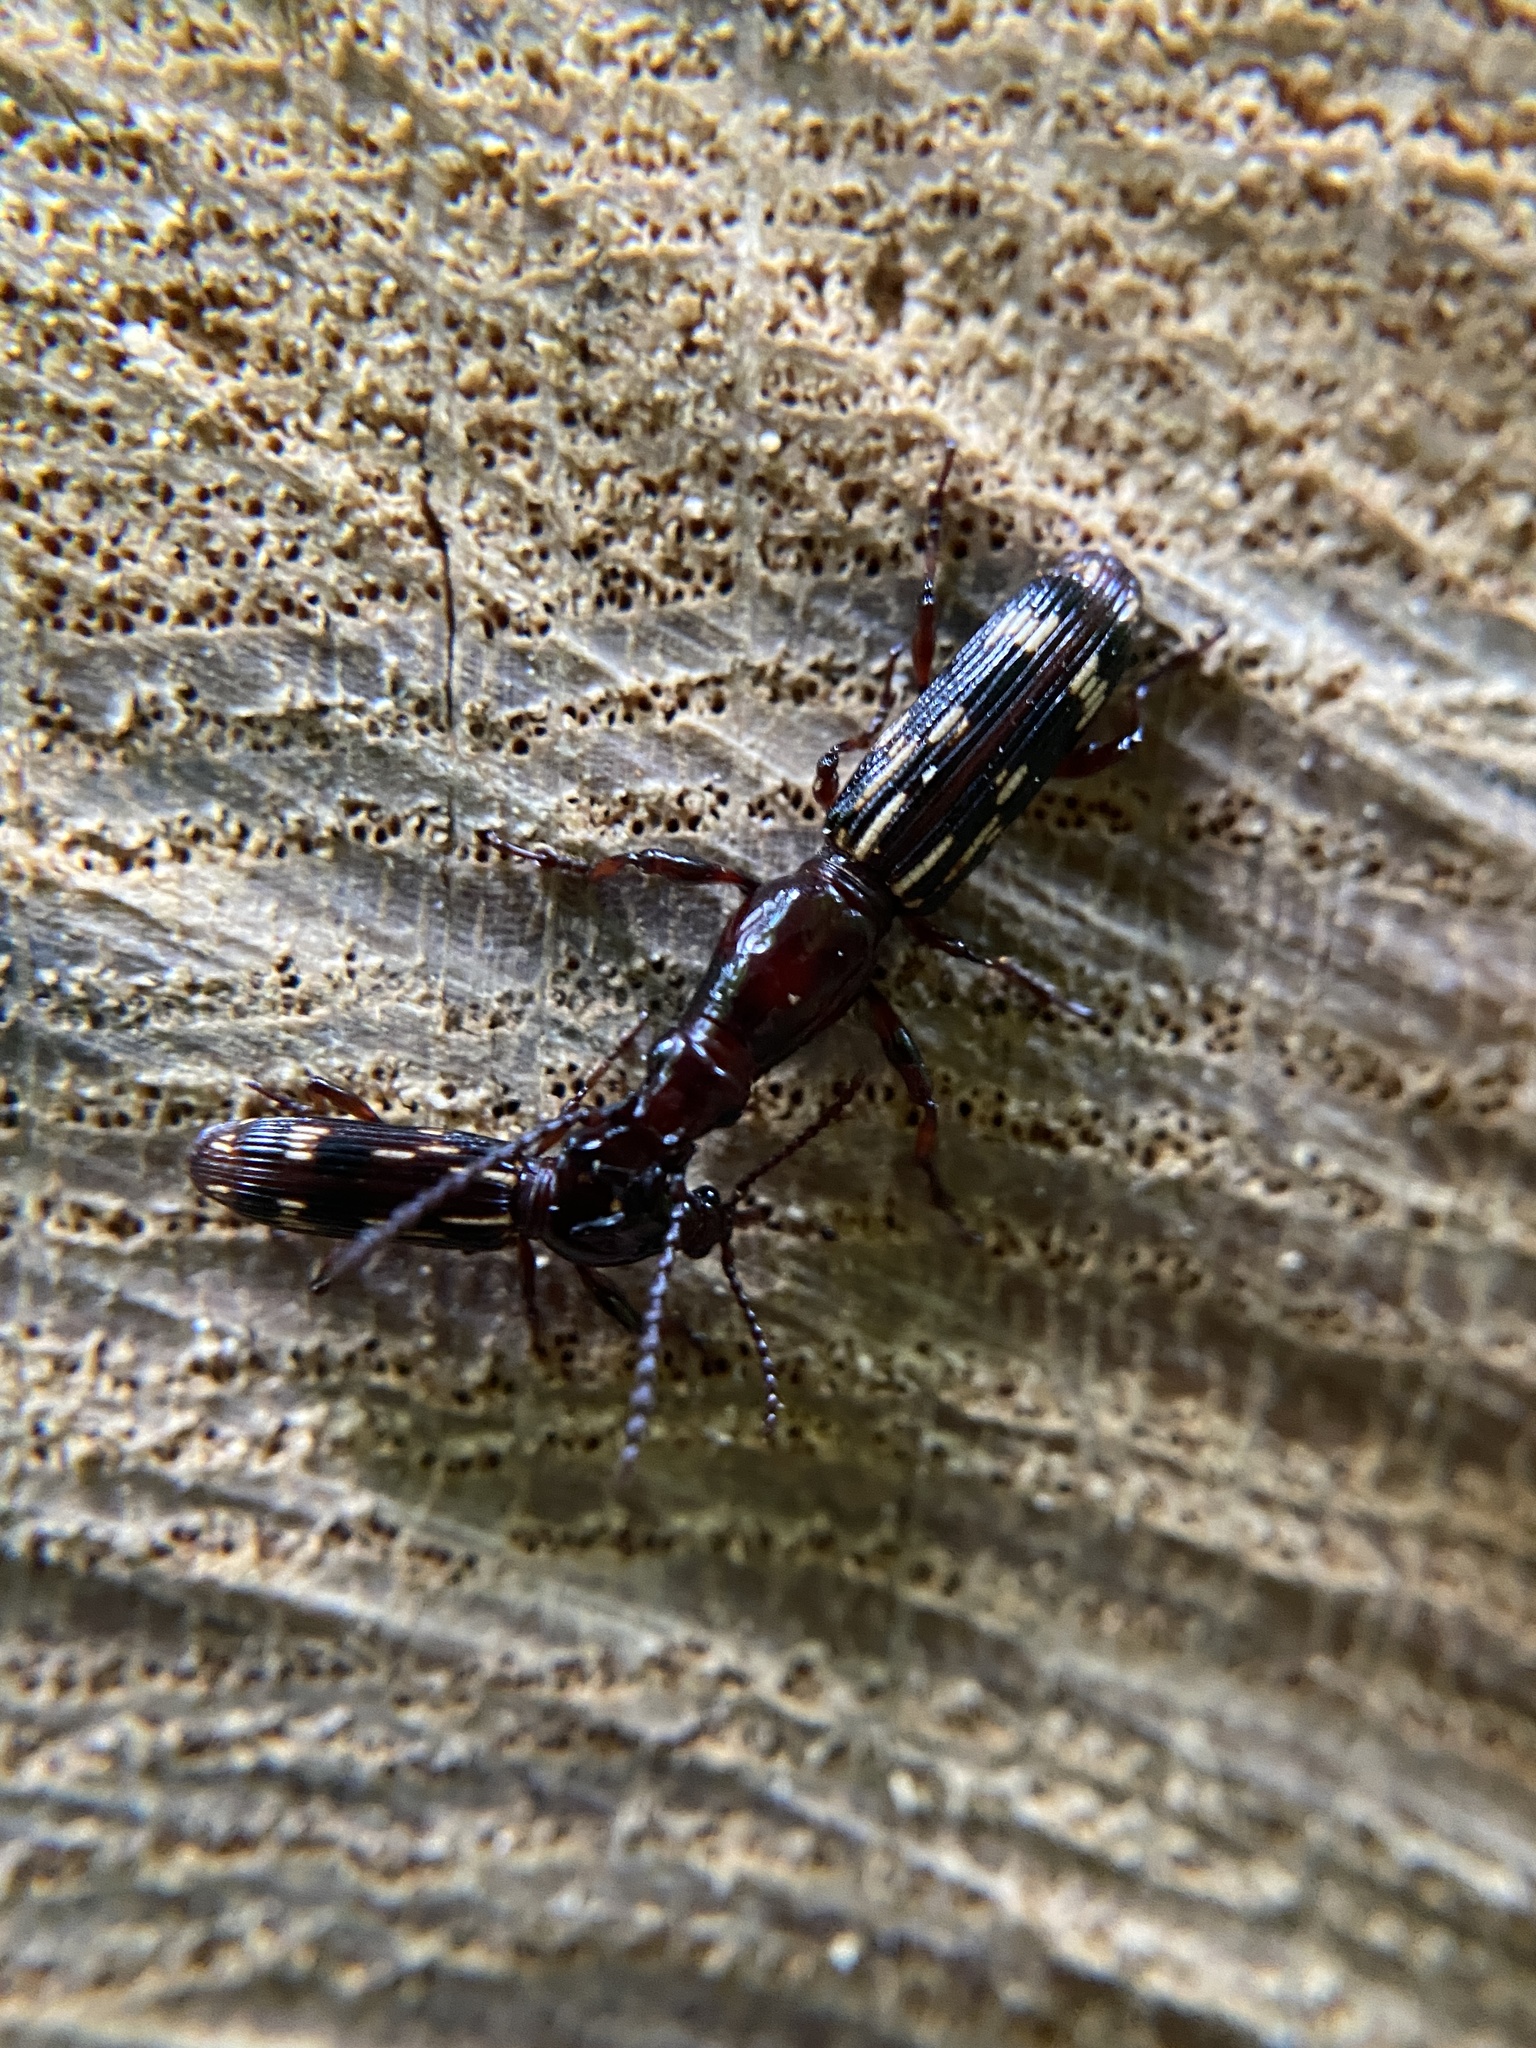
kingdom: Animalia
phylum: Arthropoda
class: Insecta
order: Coleoptera
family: Brentidae
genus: Arrenodes
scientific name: Arrenodes minutus
